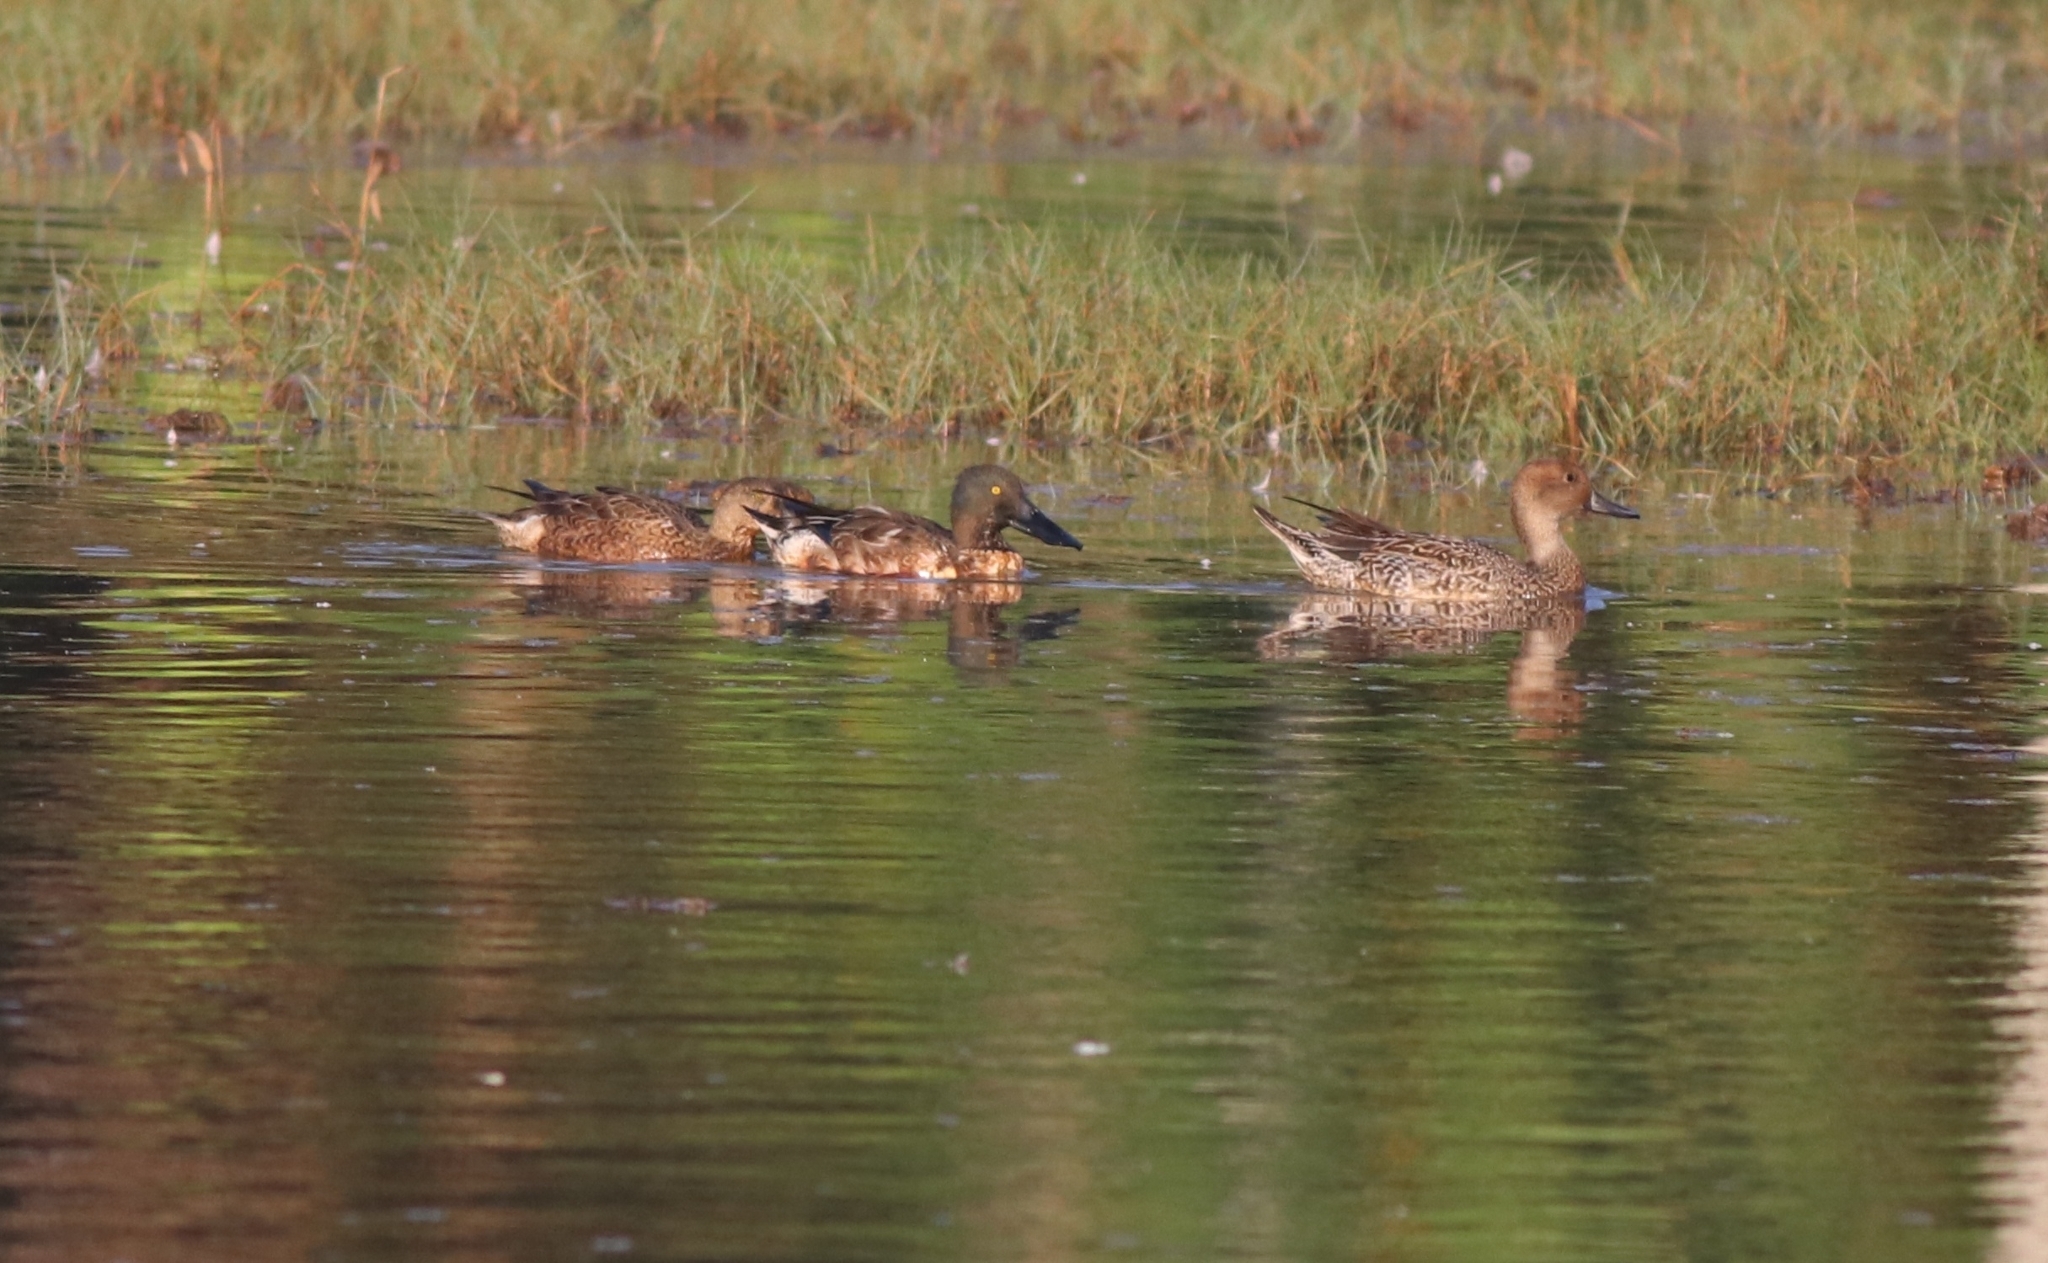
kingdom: Animalia
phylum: Chordata
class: Aves
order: Anseriformes
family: Anatidae
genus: Anas
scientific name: Anas acuta
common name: Northern pintail
